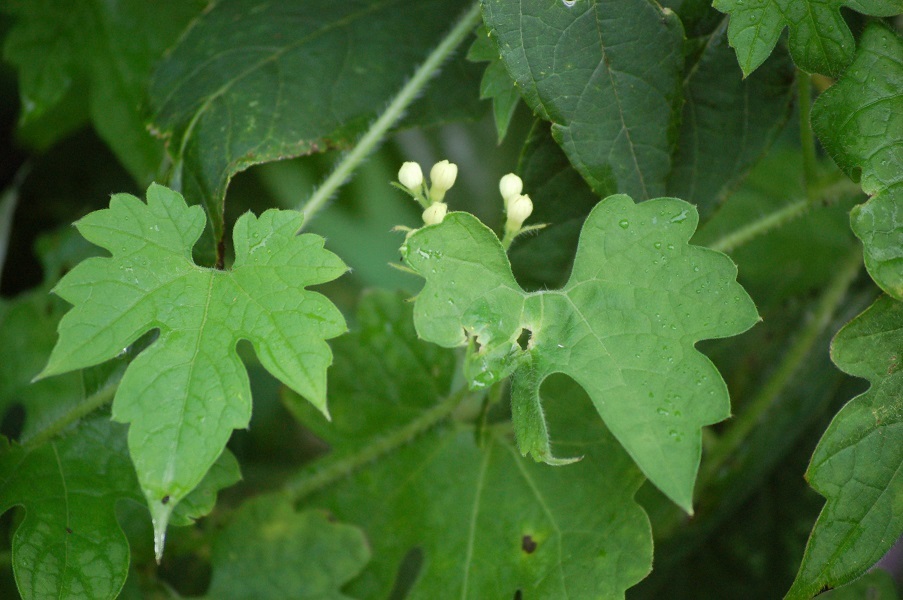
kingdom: Plantae
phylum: Tracheophyta
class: Magnoliopsida
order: Cornales
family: Loasaceae
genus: Gronovia
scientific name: Gronovia scandens
